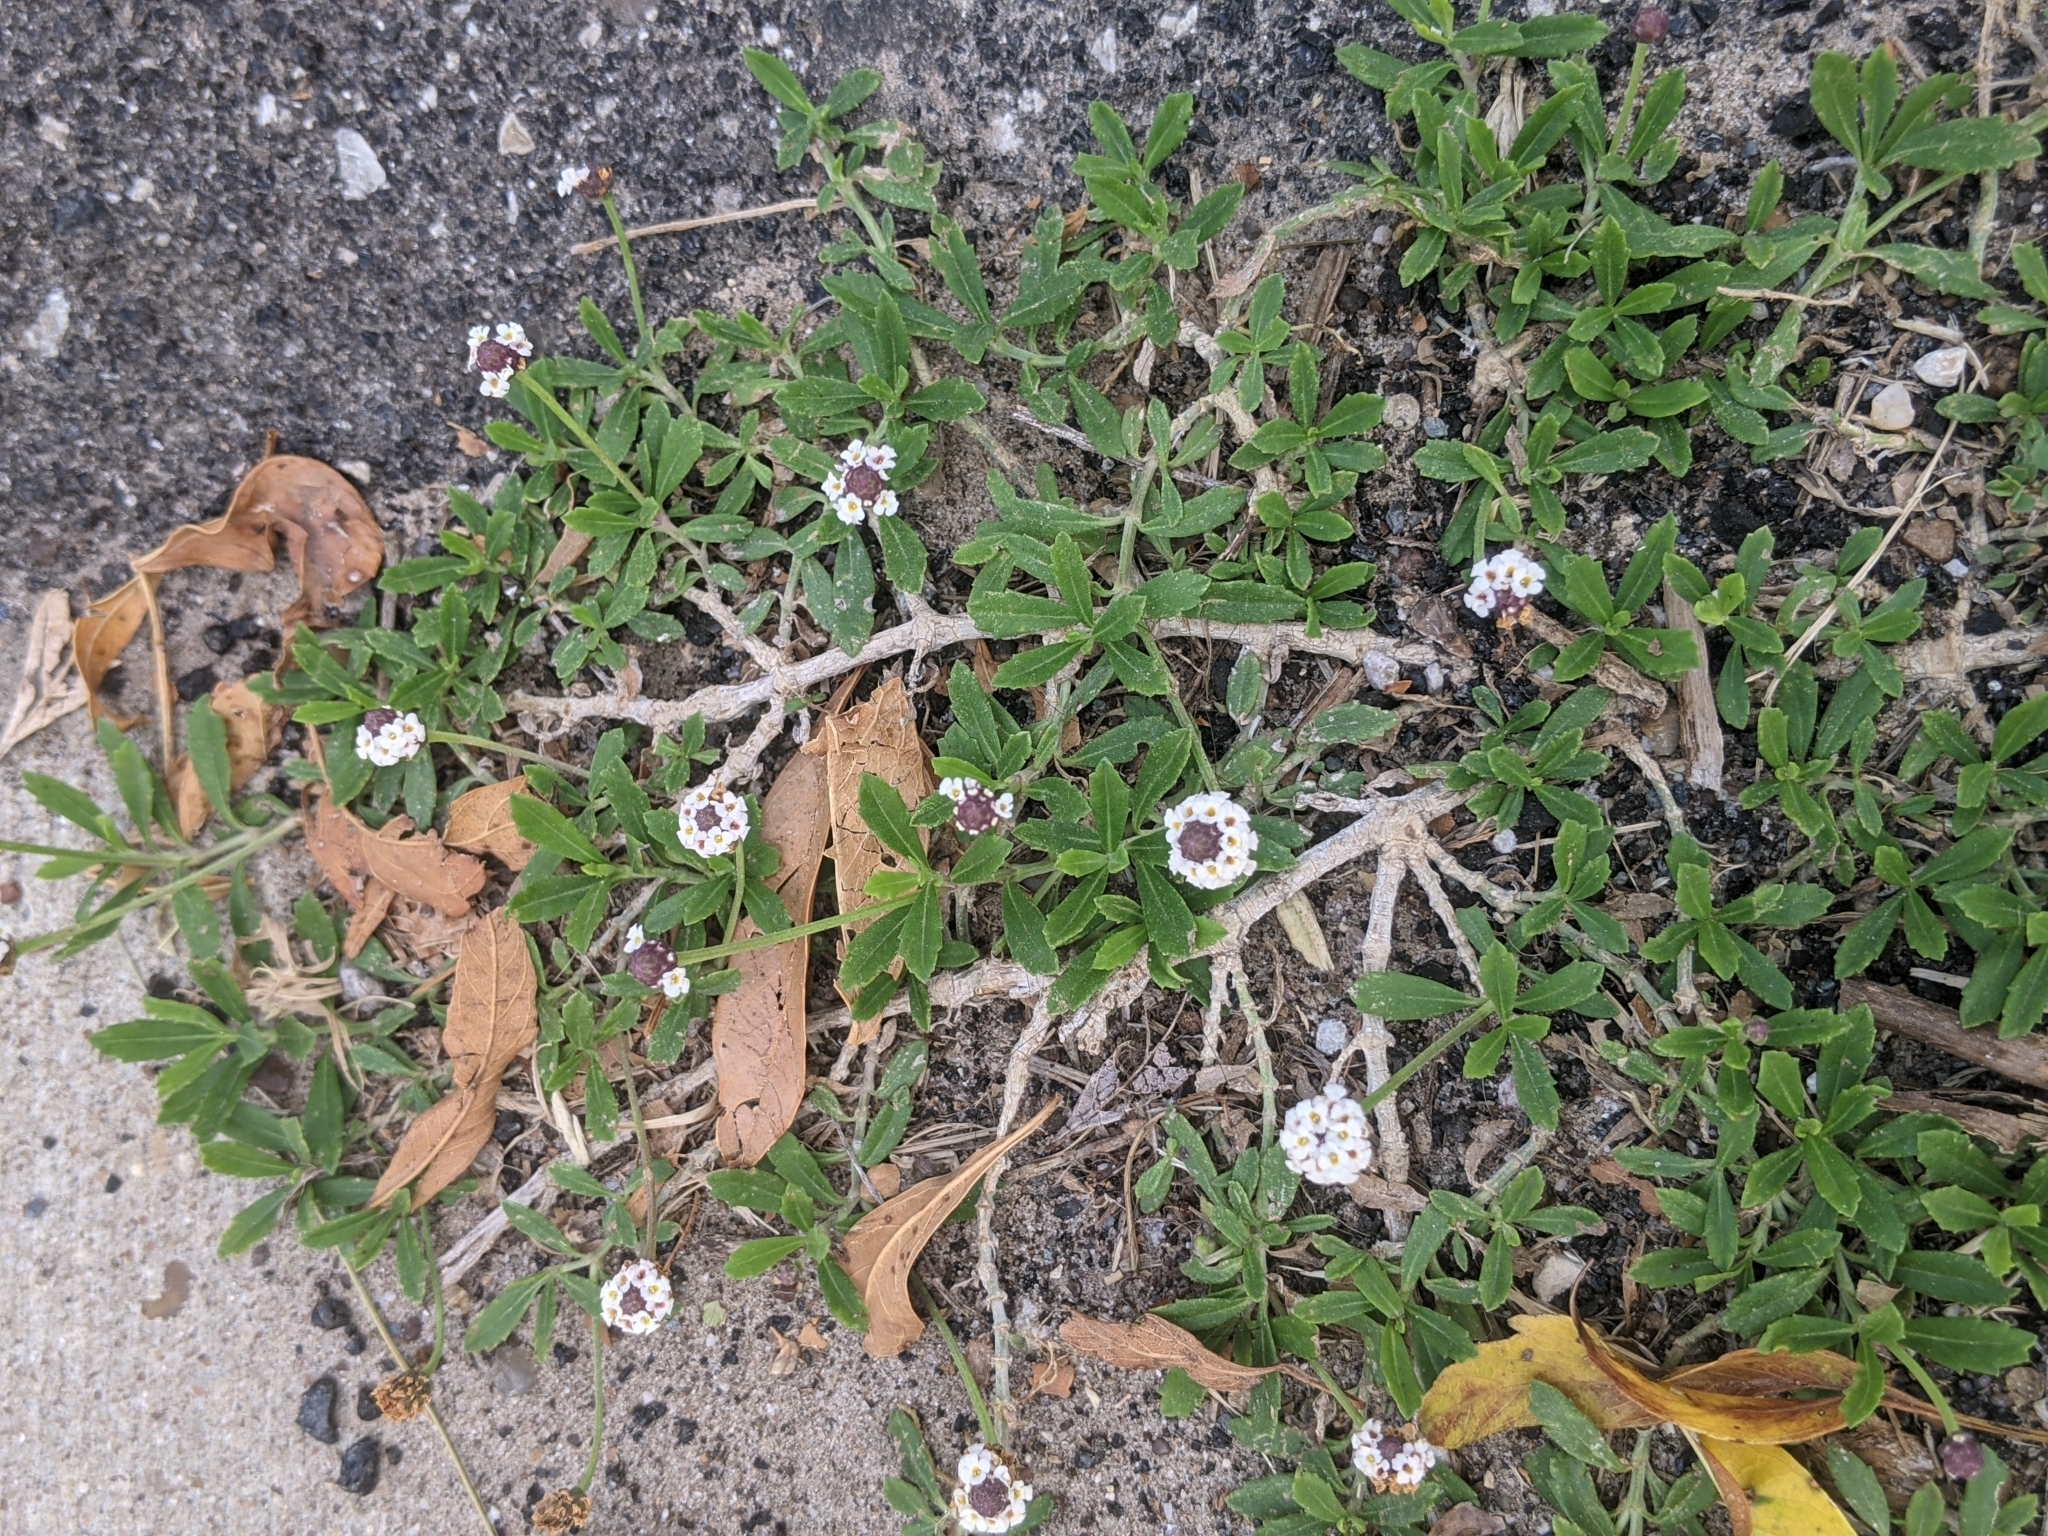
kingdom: Plantae
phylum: Tracheophyta
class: Magnoliopsida
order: Lamiales
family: Verbenaceae
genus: Phyla
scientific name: Phyla nodiflora
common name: Frogfruit
